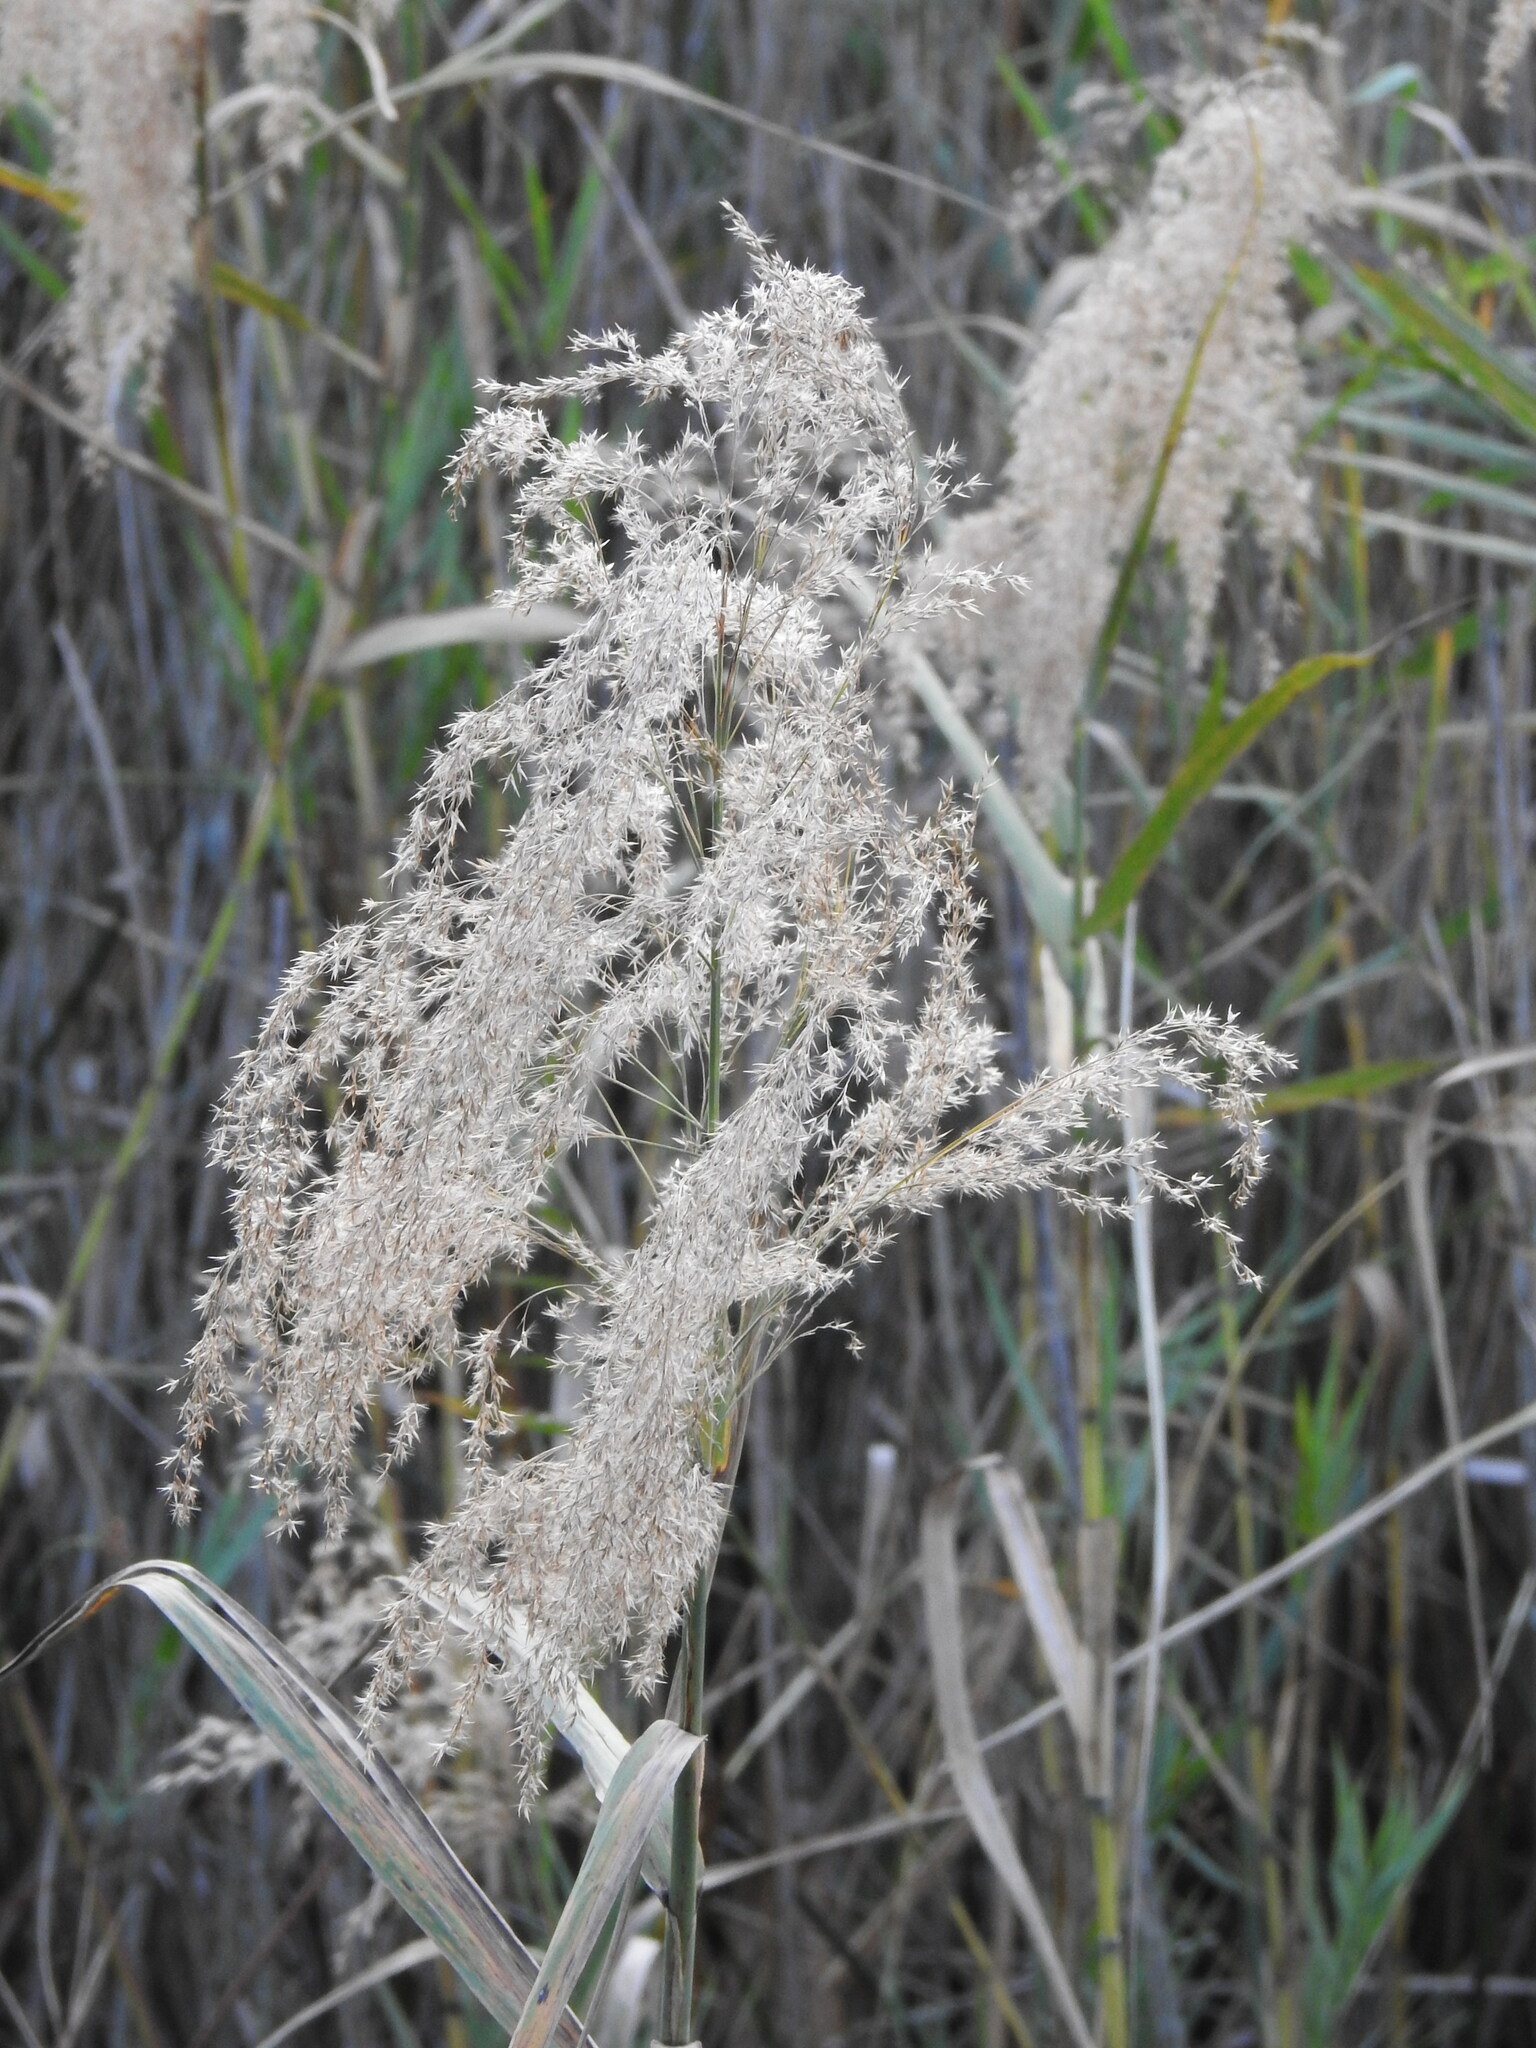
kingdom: Plantae
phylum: Tracheophyta
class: Liliopsida
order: Poales
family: Poaceae
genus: Phragmites
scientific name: Phragmites australis
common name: Common reed
